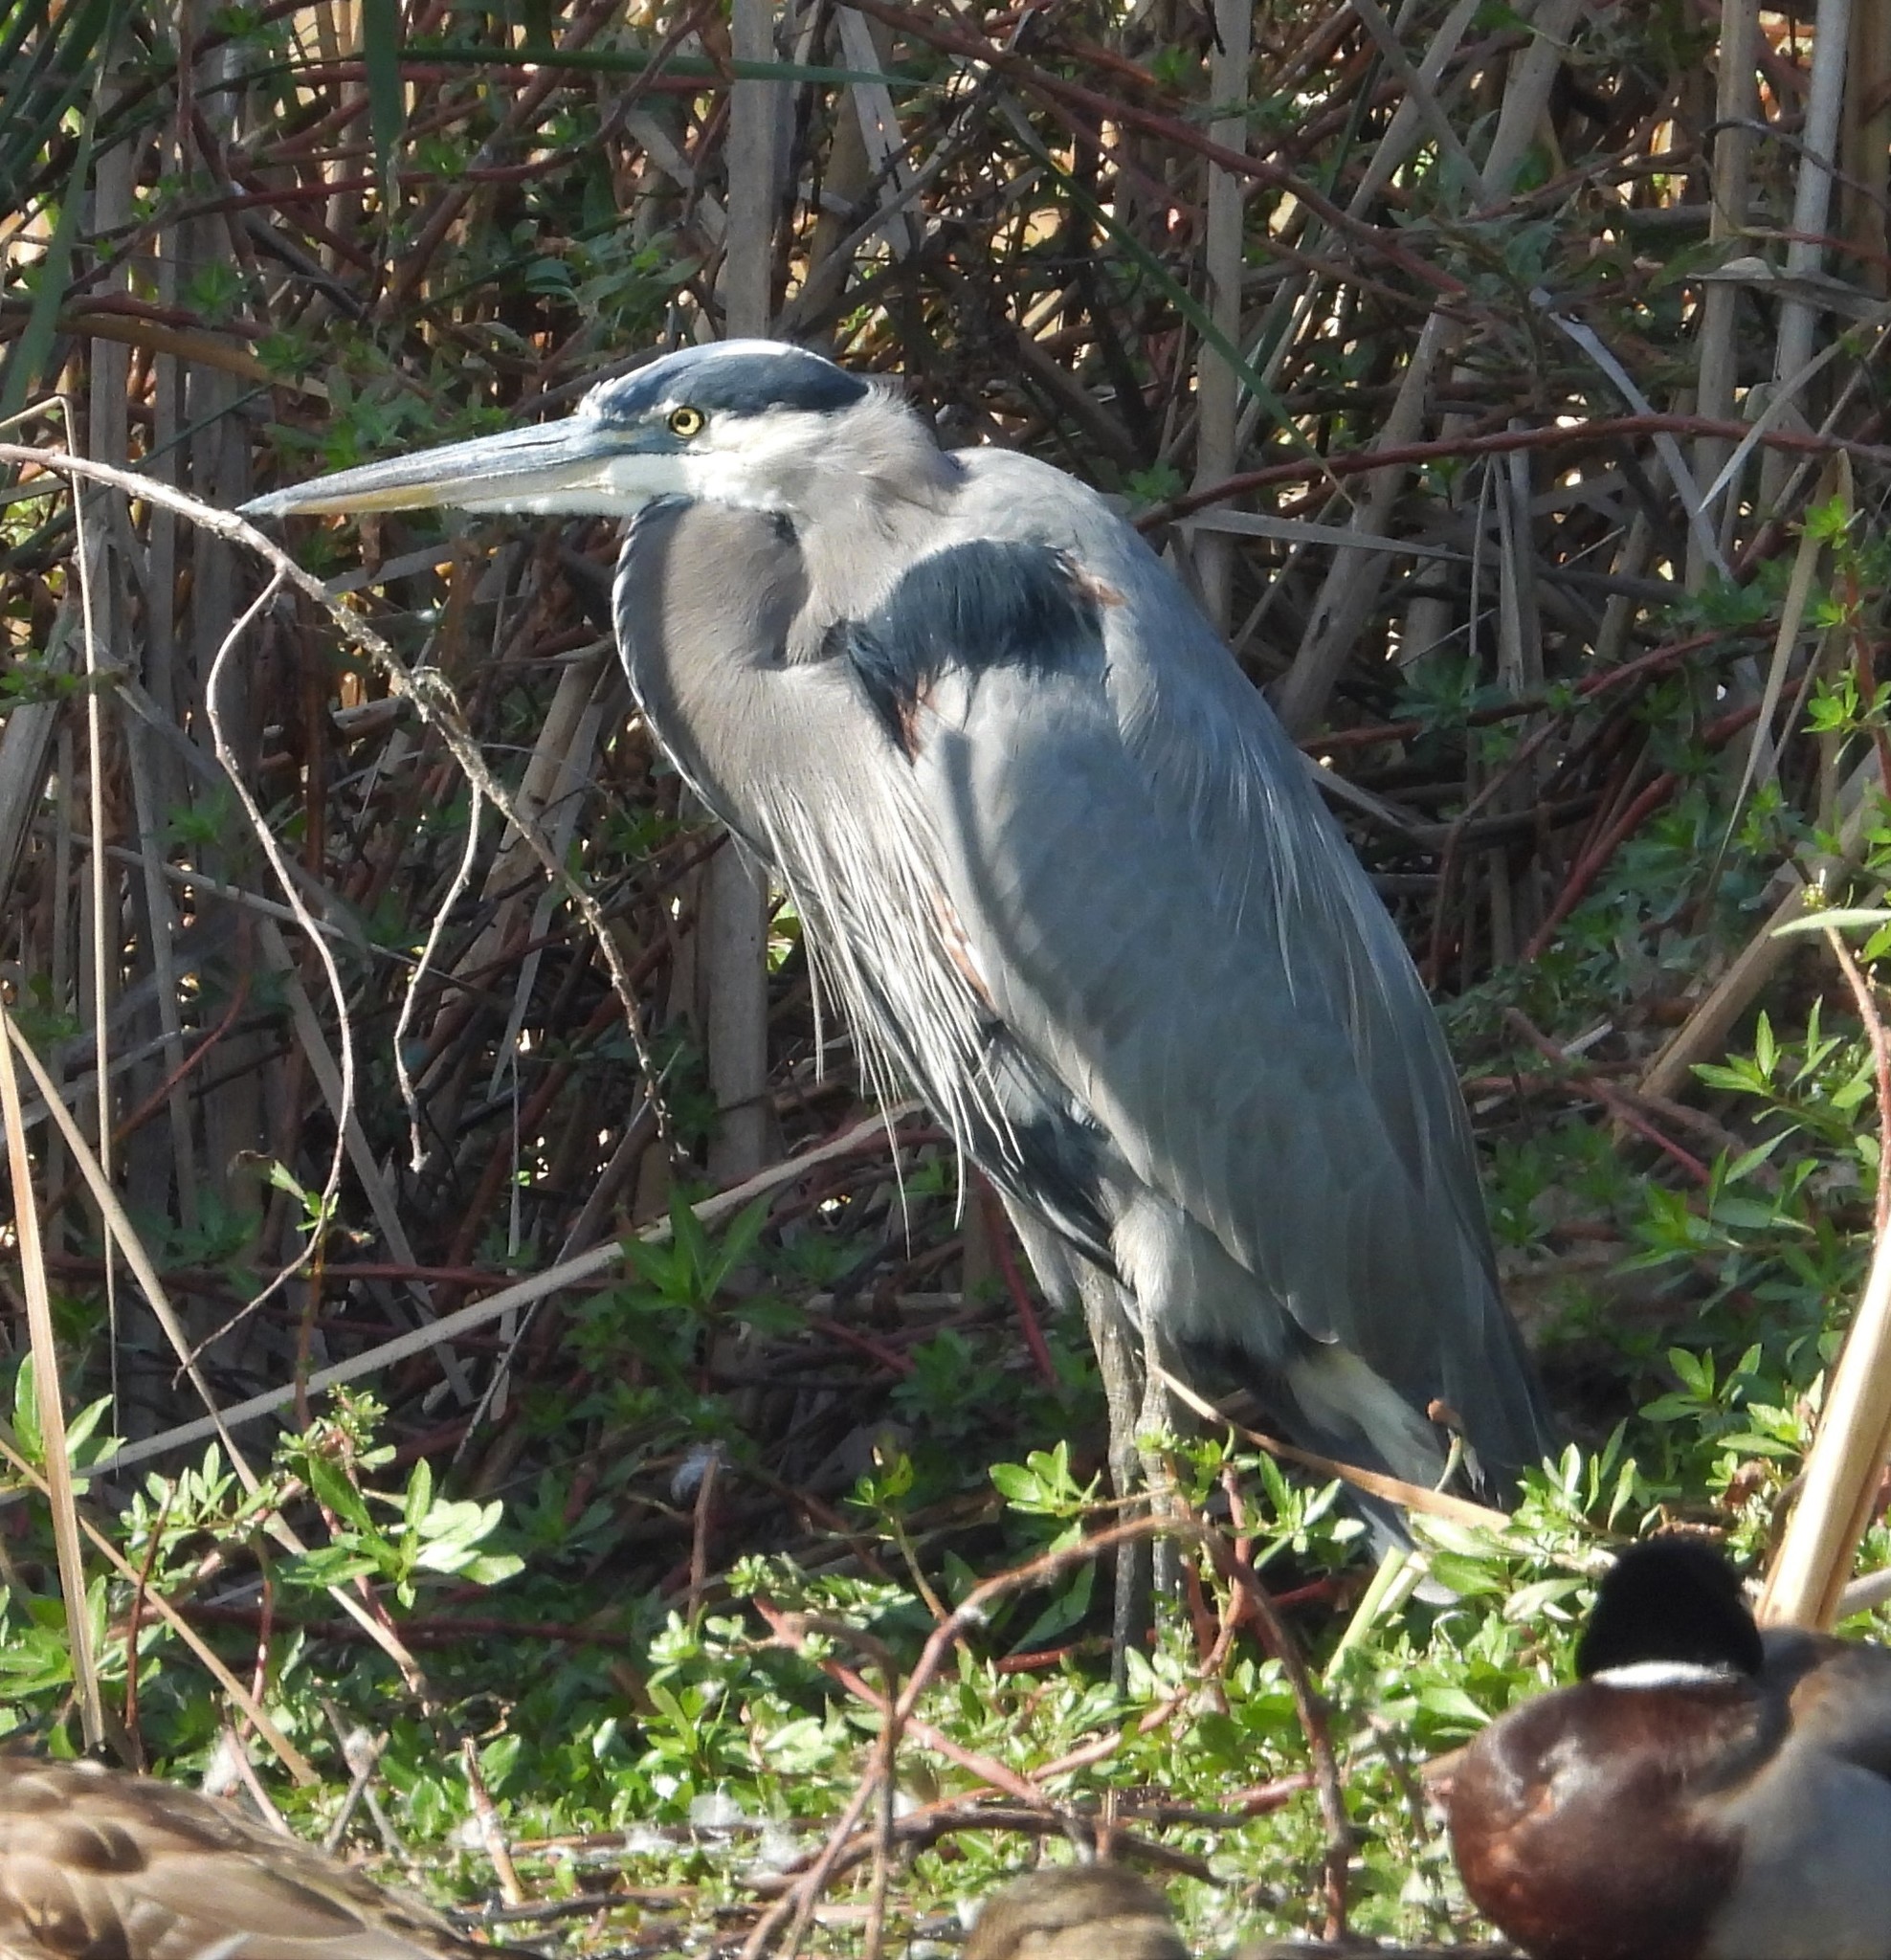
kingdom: Animalia
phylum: Chordata
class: Aves
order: Pelecaniformes
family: Ardeidae
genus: Ardea
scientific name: Ardea herodias
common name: Great blue heron
